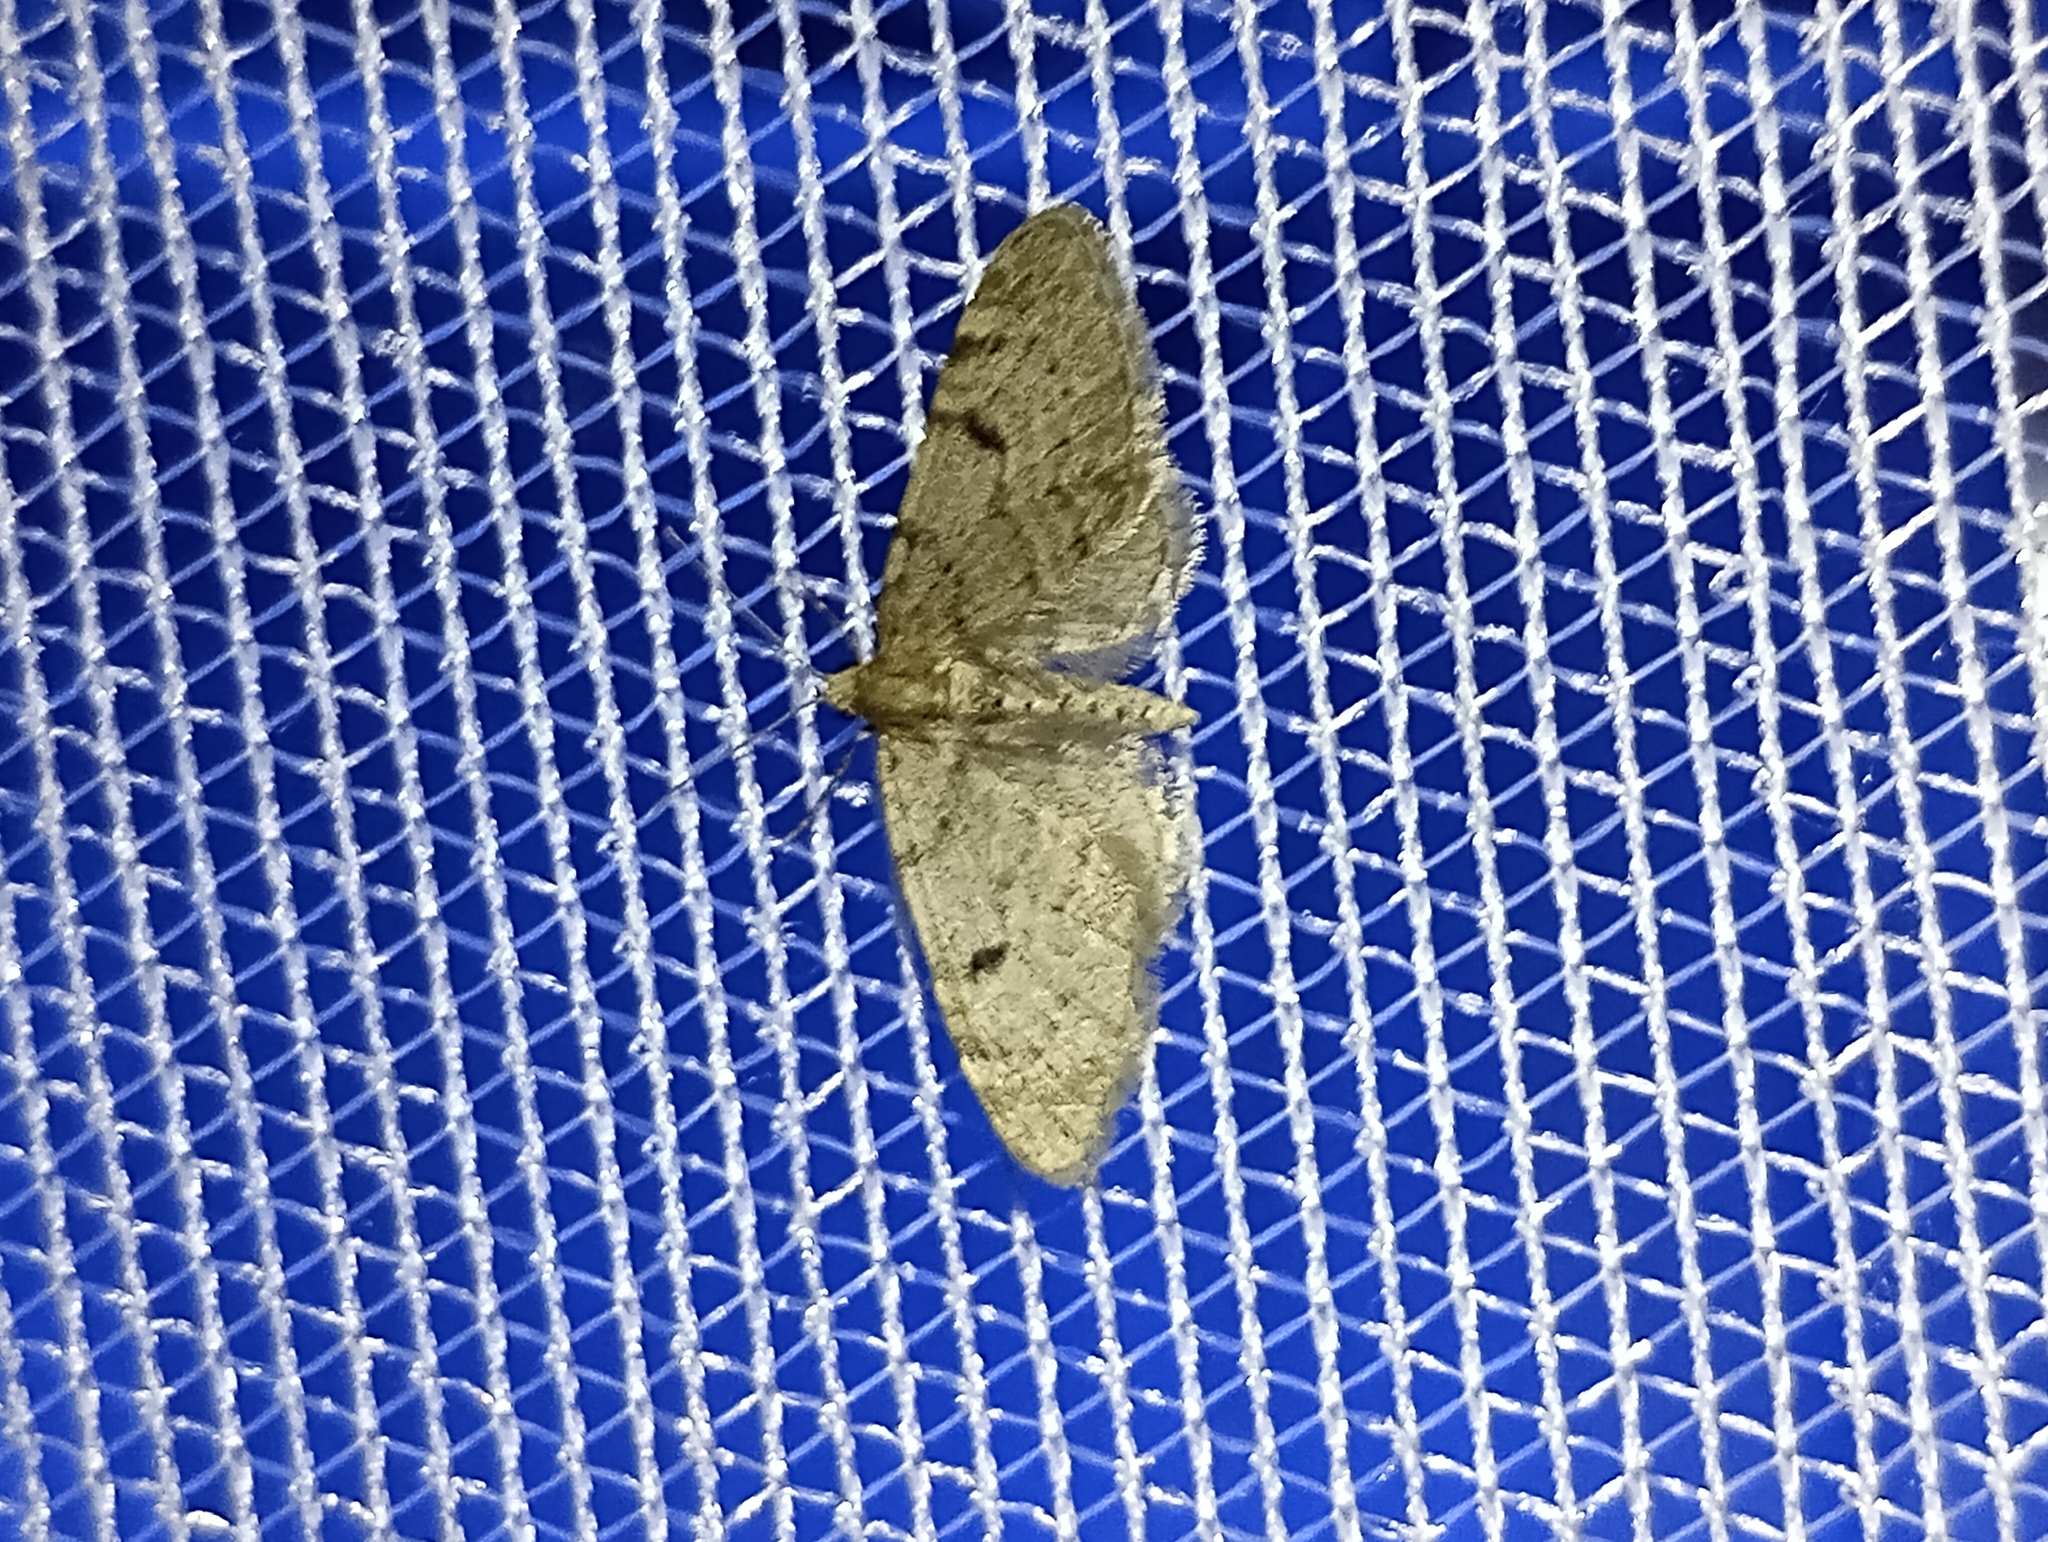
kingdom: Animalia
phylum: Arthropoda
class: Insecta
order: Lepidoptera
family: Geometridae
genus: Eupithecia
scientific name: Eupithecia indigata
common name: Ochreous pug
